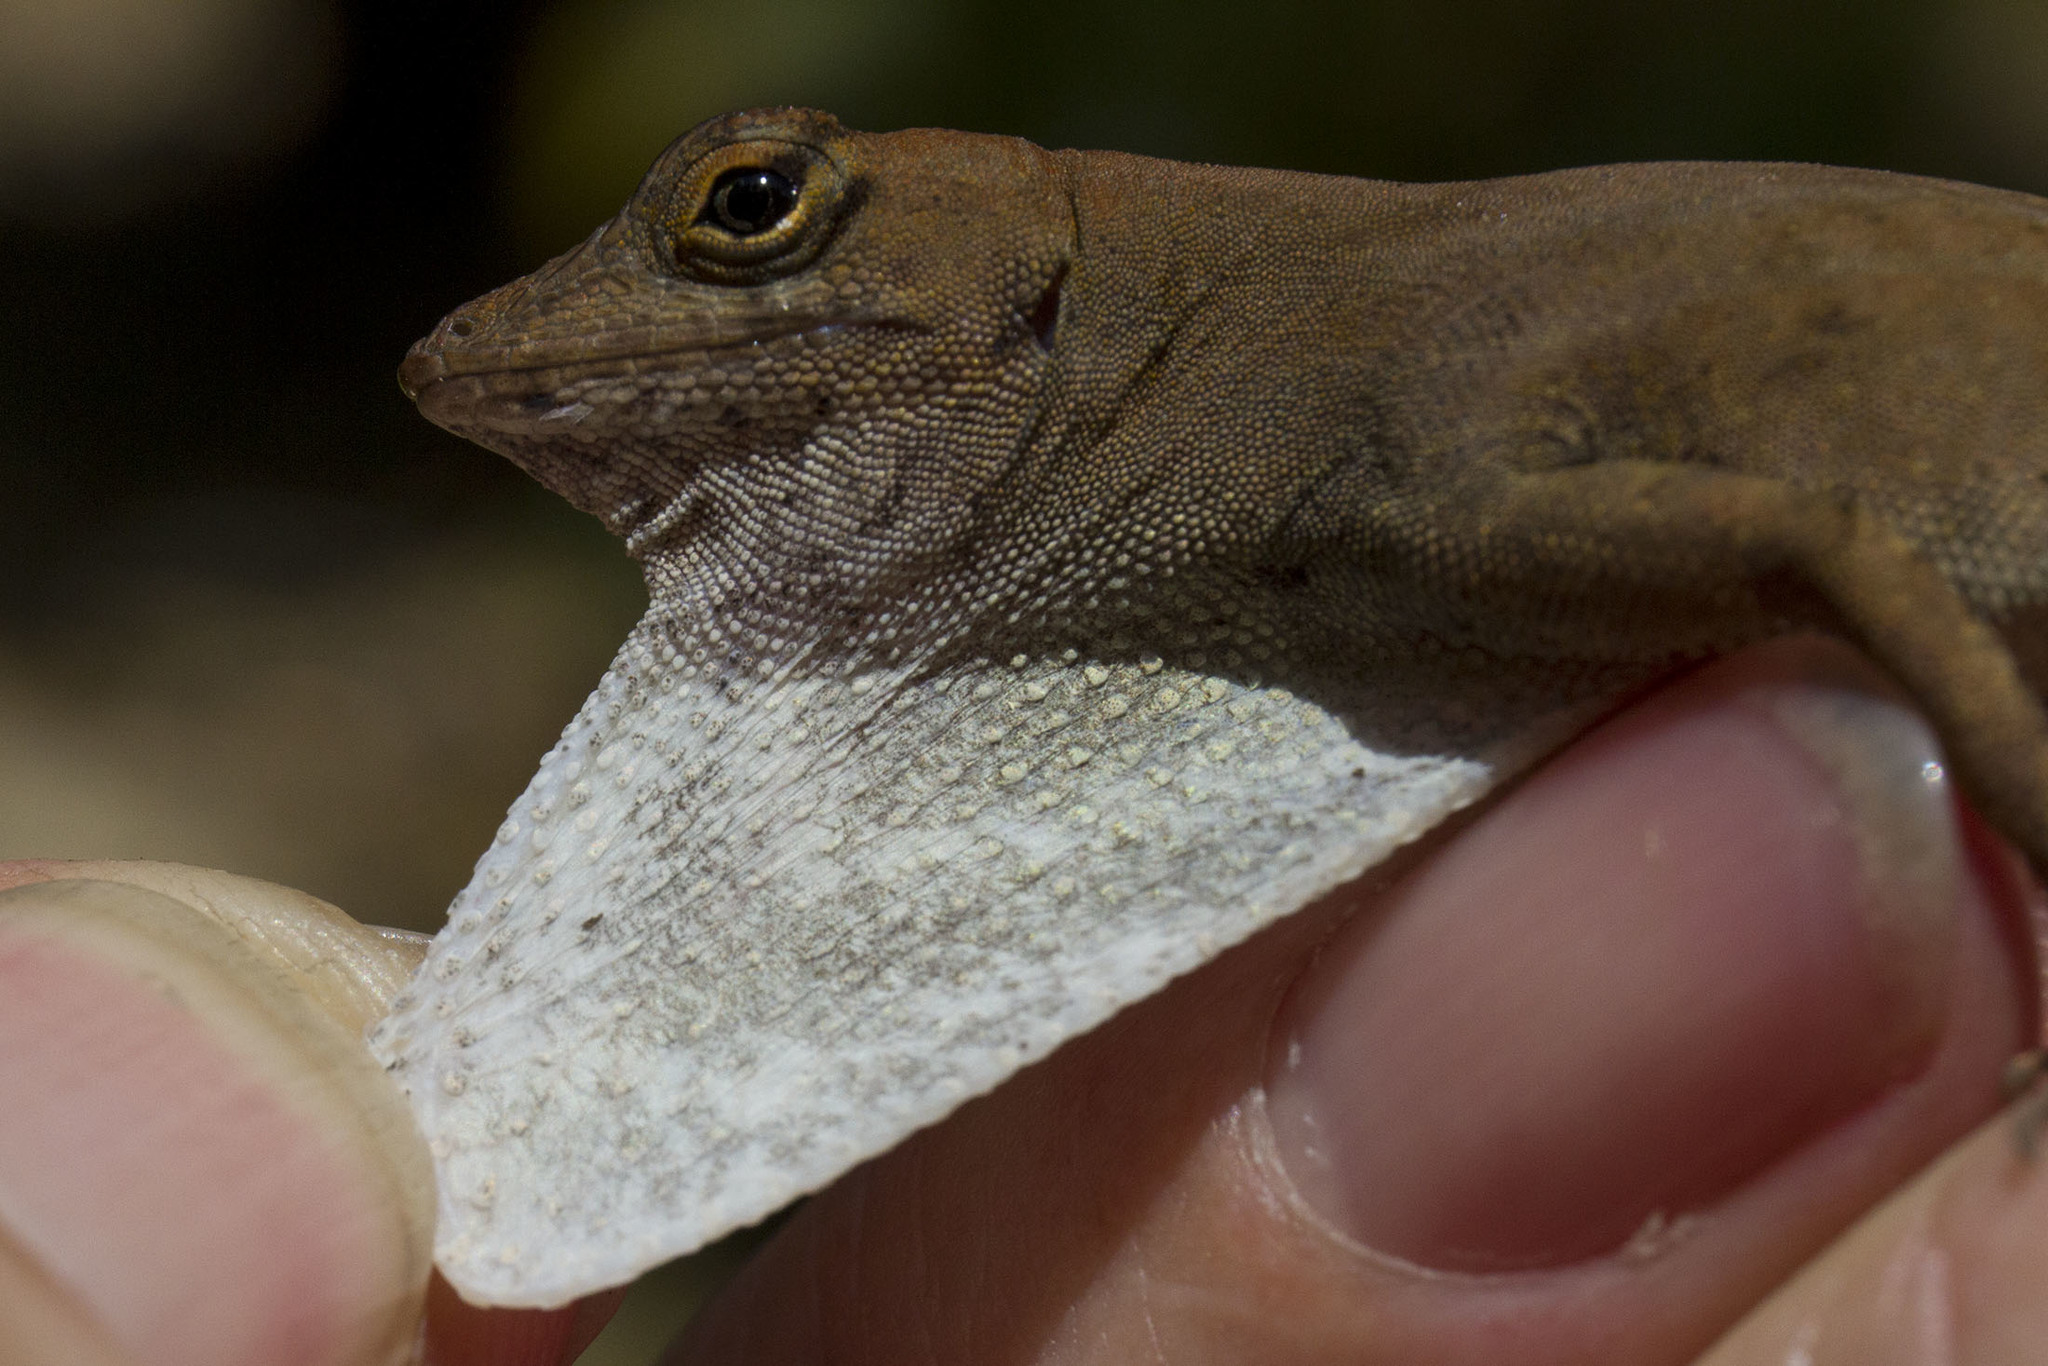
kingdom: Animalia
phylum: Chordata
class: Squamata
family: Dactyloidae
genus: Anolis
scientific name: Anolis homolechis
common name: Habana anole
